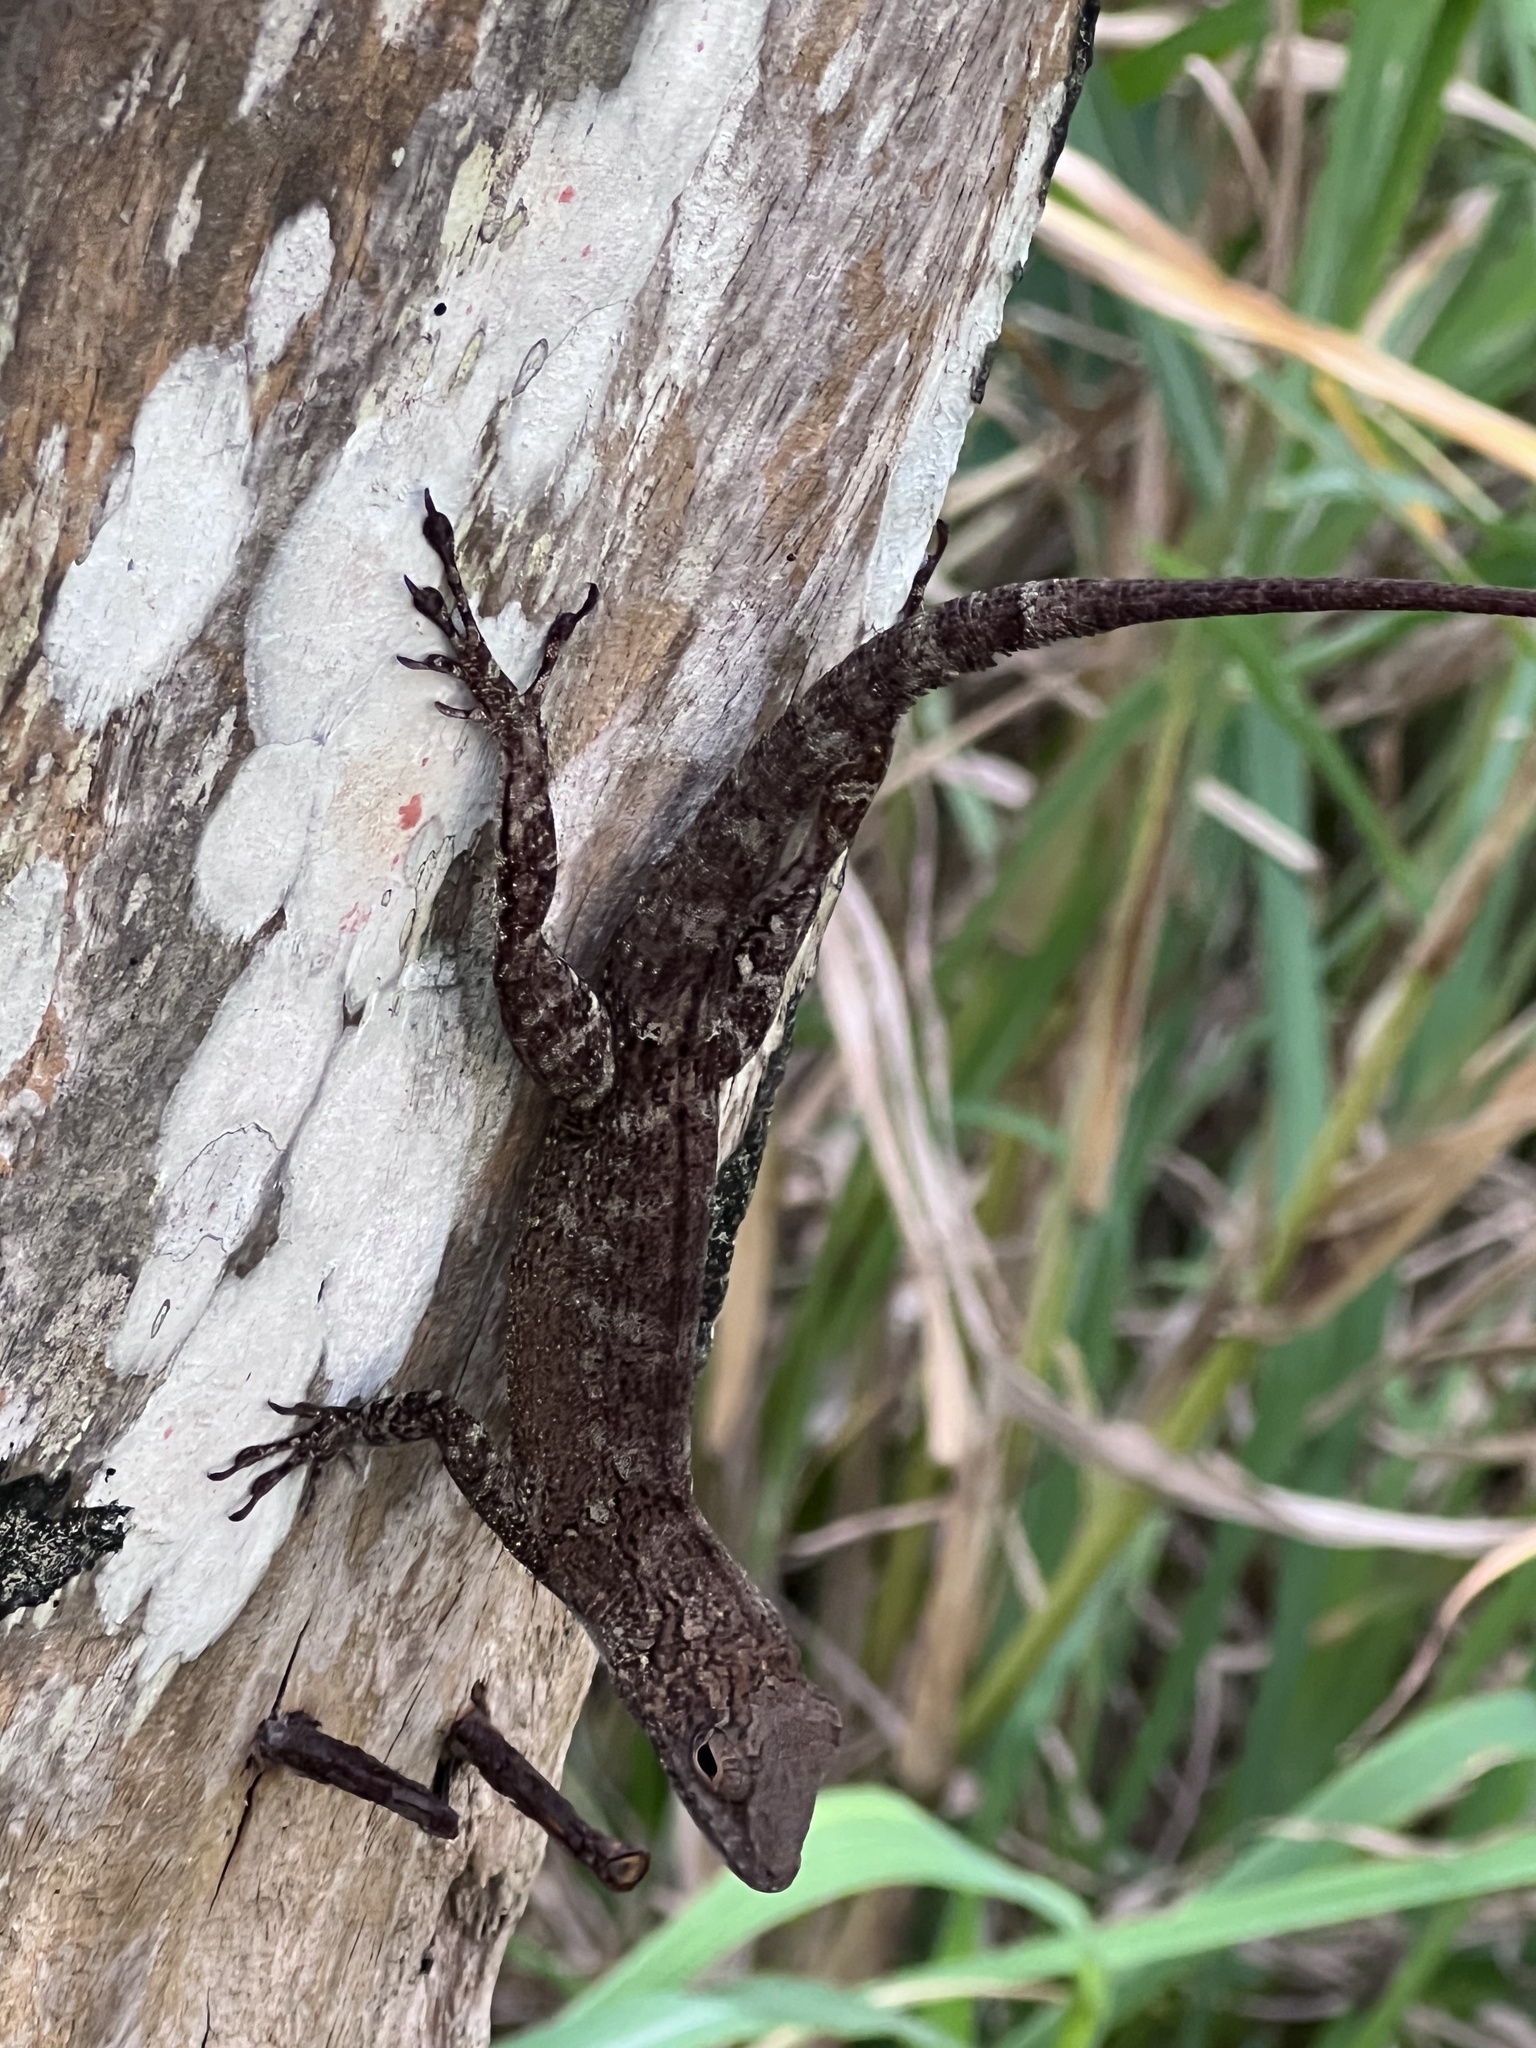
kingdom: Animalia
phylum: Chordata
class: Squamata
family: Dactyloidae
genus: Anolis
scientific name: Anolis cristatellus
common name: Crested anole
